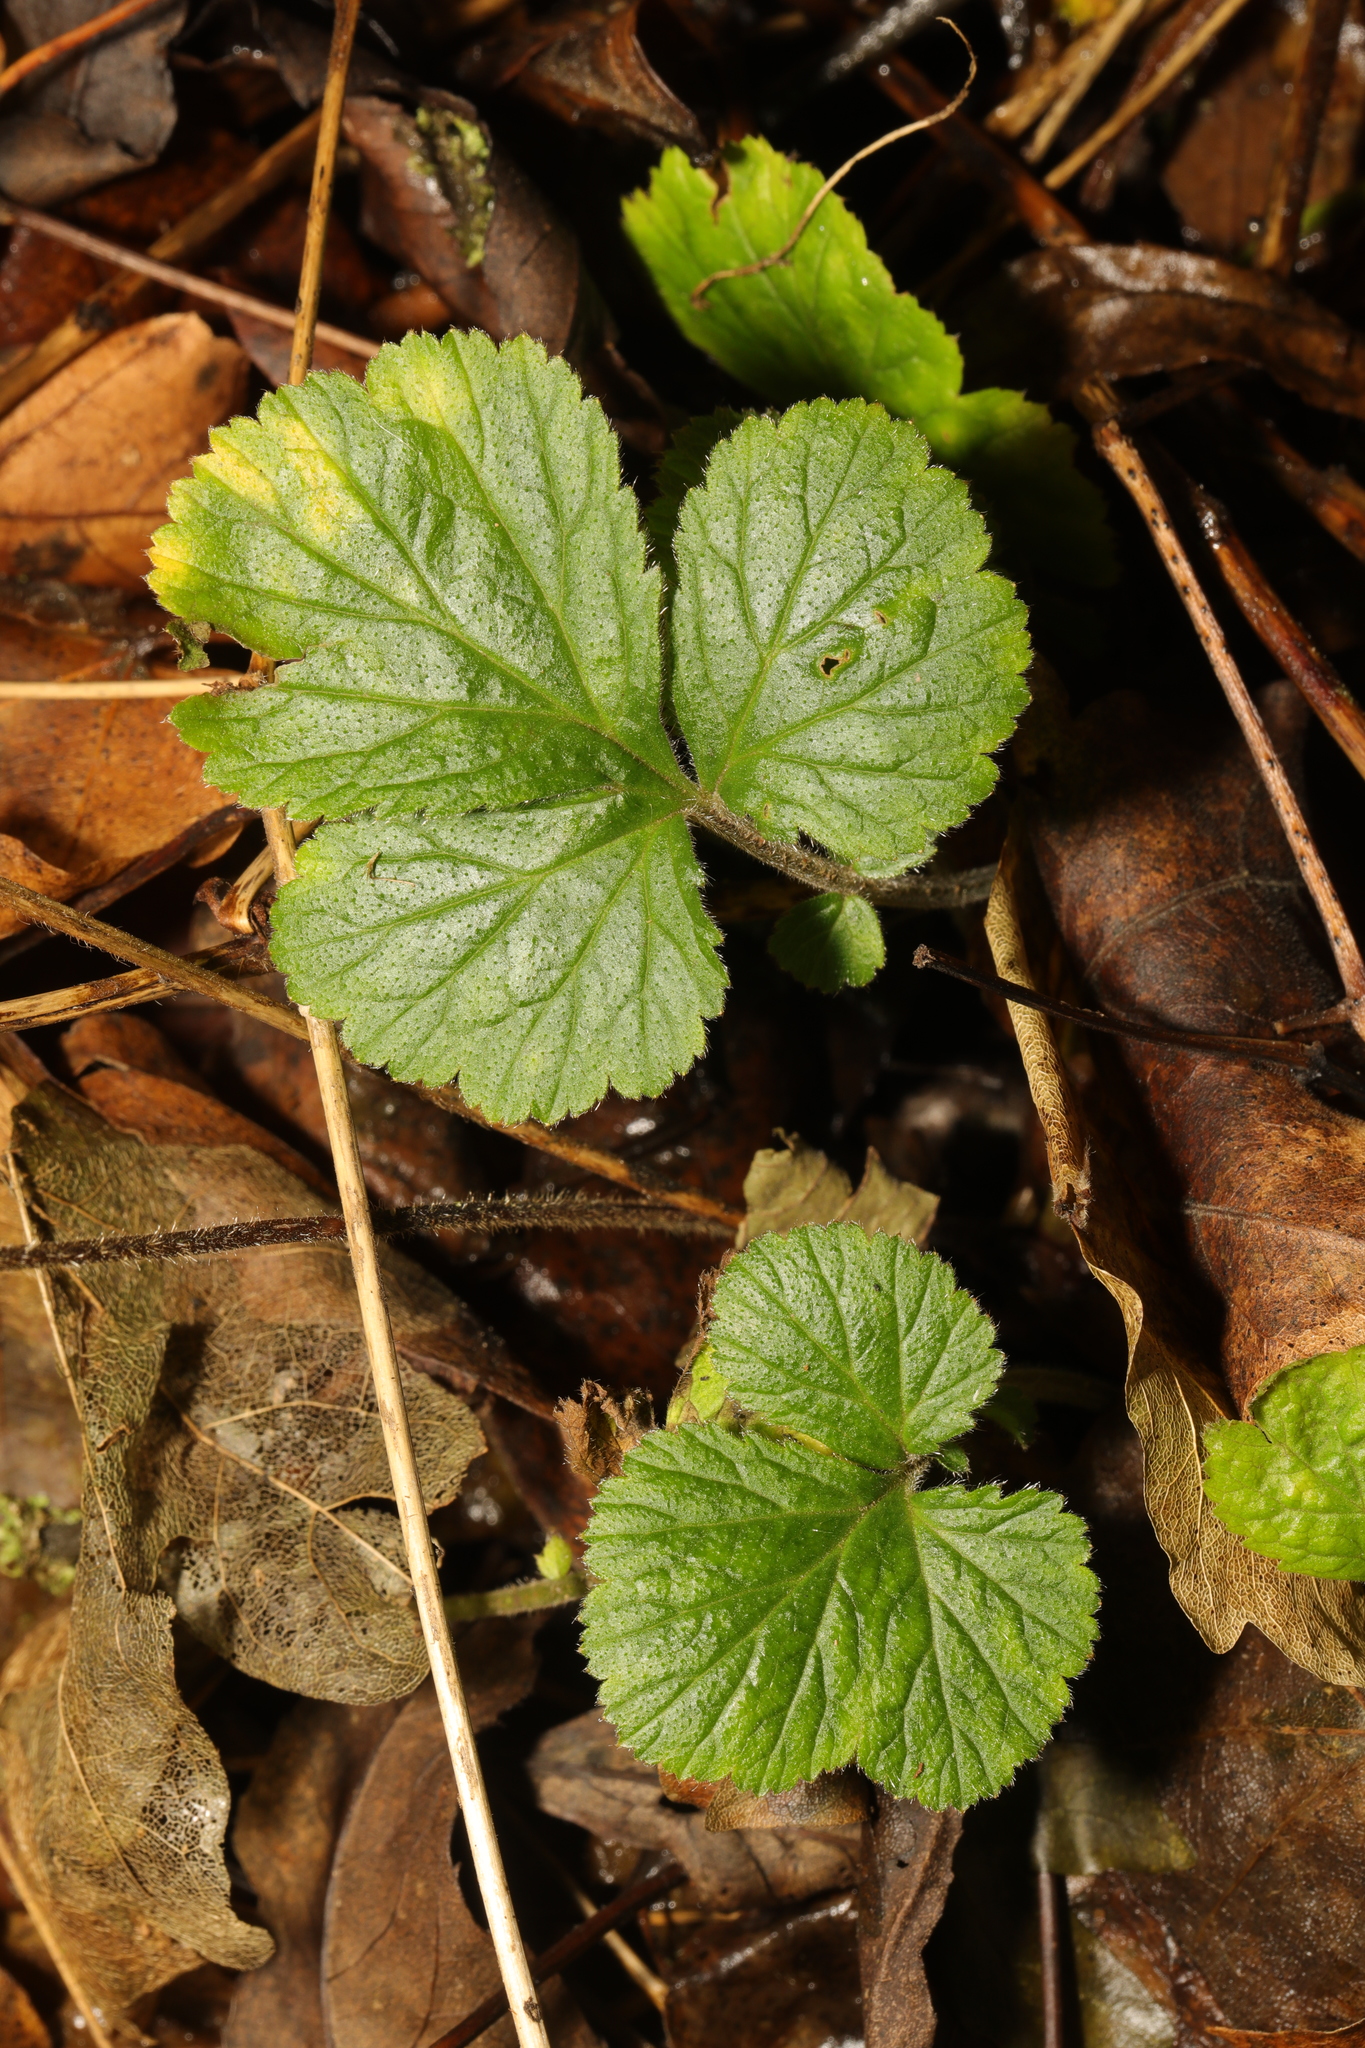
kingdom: Plantae
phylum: Tracheophyta
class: Magnoliopsida
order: Rosales
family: Rosaceae
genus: Geum
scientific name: Geum urbanum
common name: Wood avens
